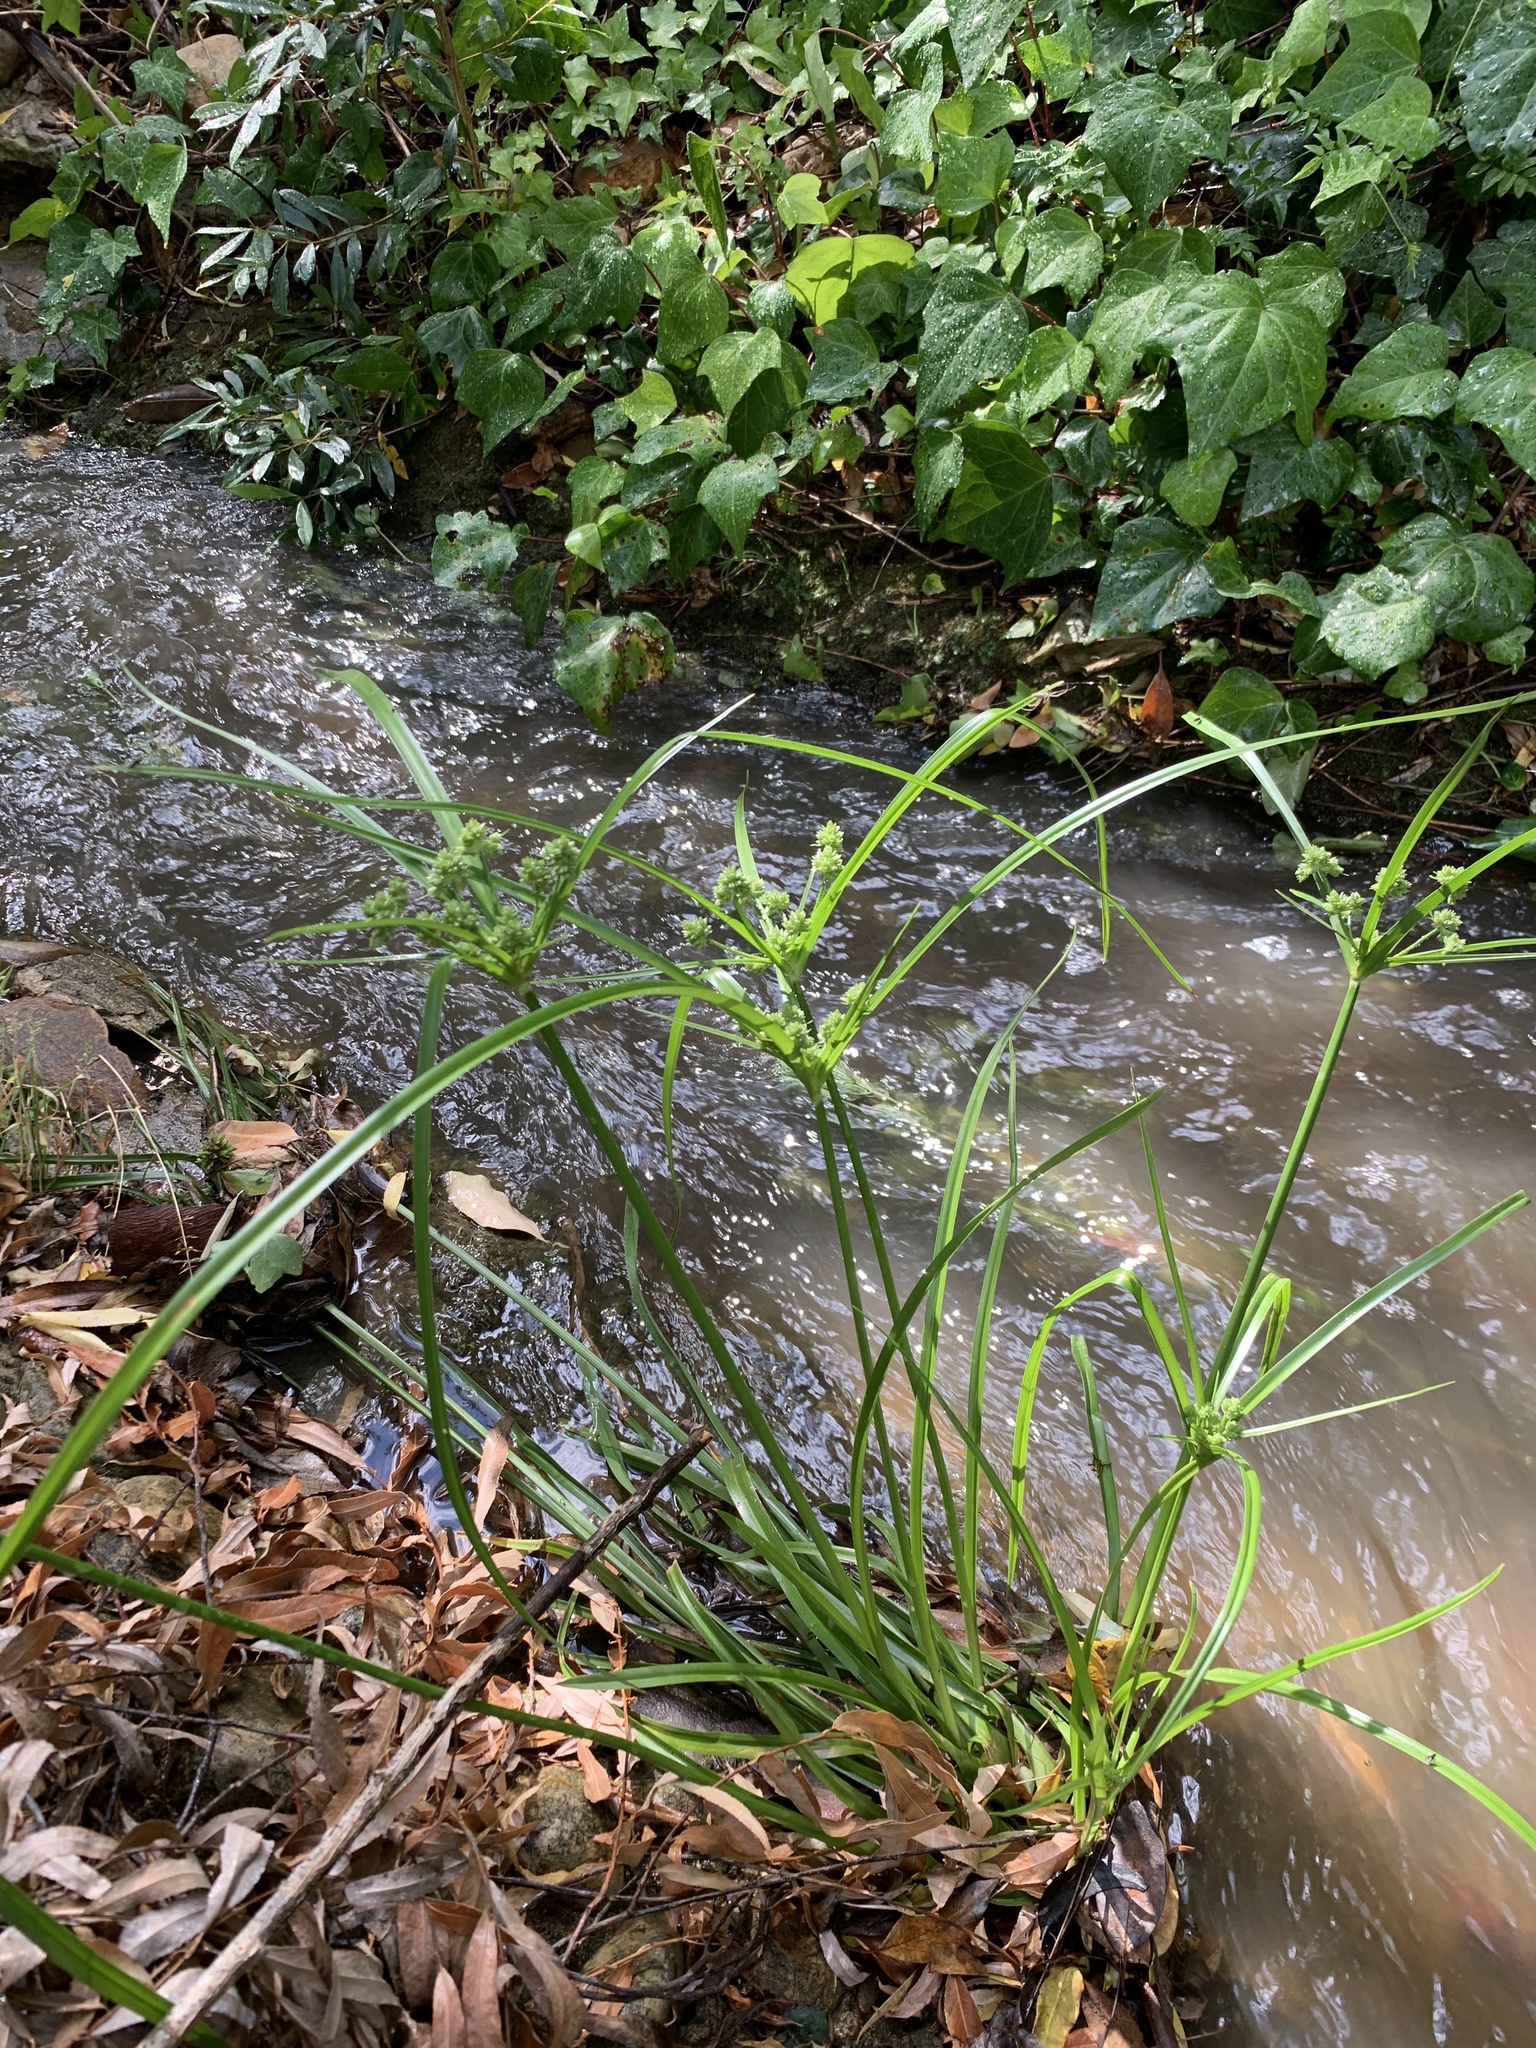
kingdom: Plantae
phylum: Tracheophyta
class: Liliopsida
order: Poales
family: Cyperaceae
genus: Cyperus
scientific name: Cyperus eragrostis
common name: Tall flatsedge
